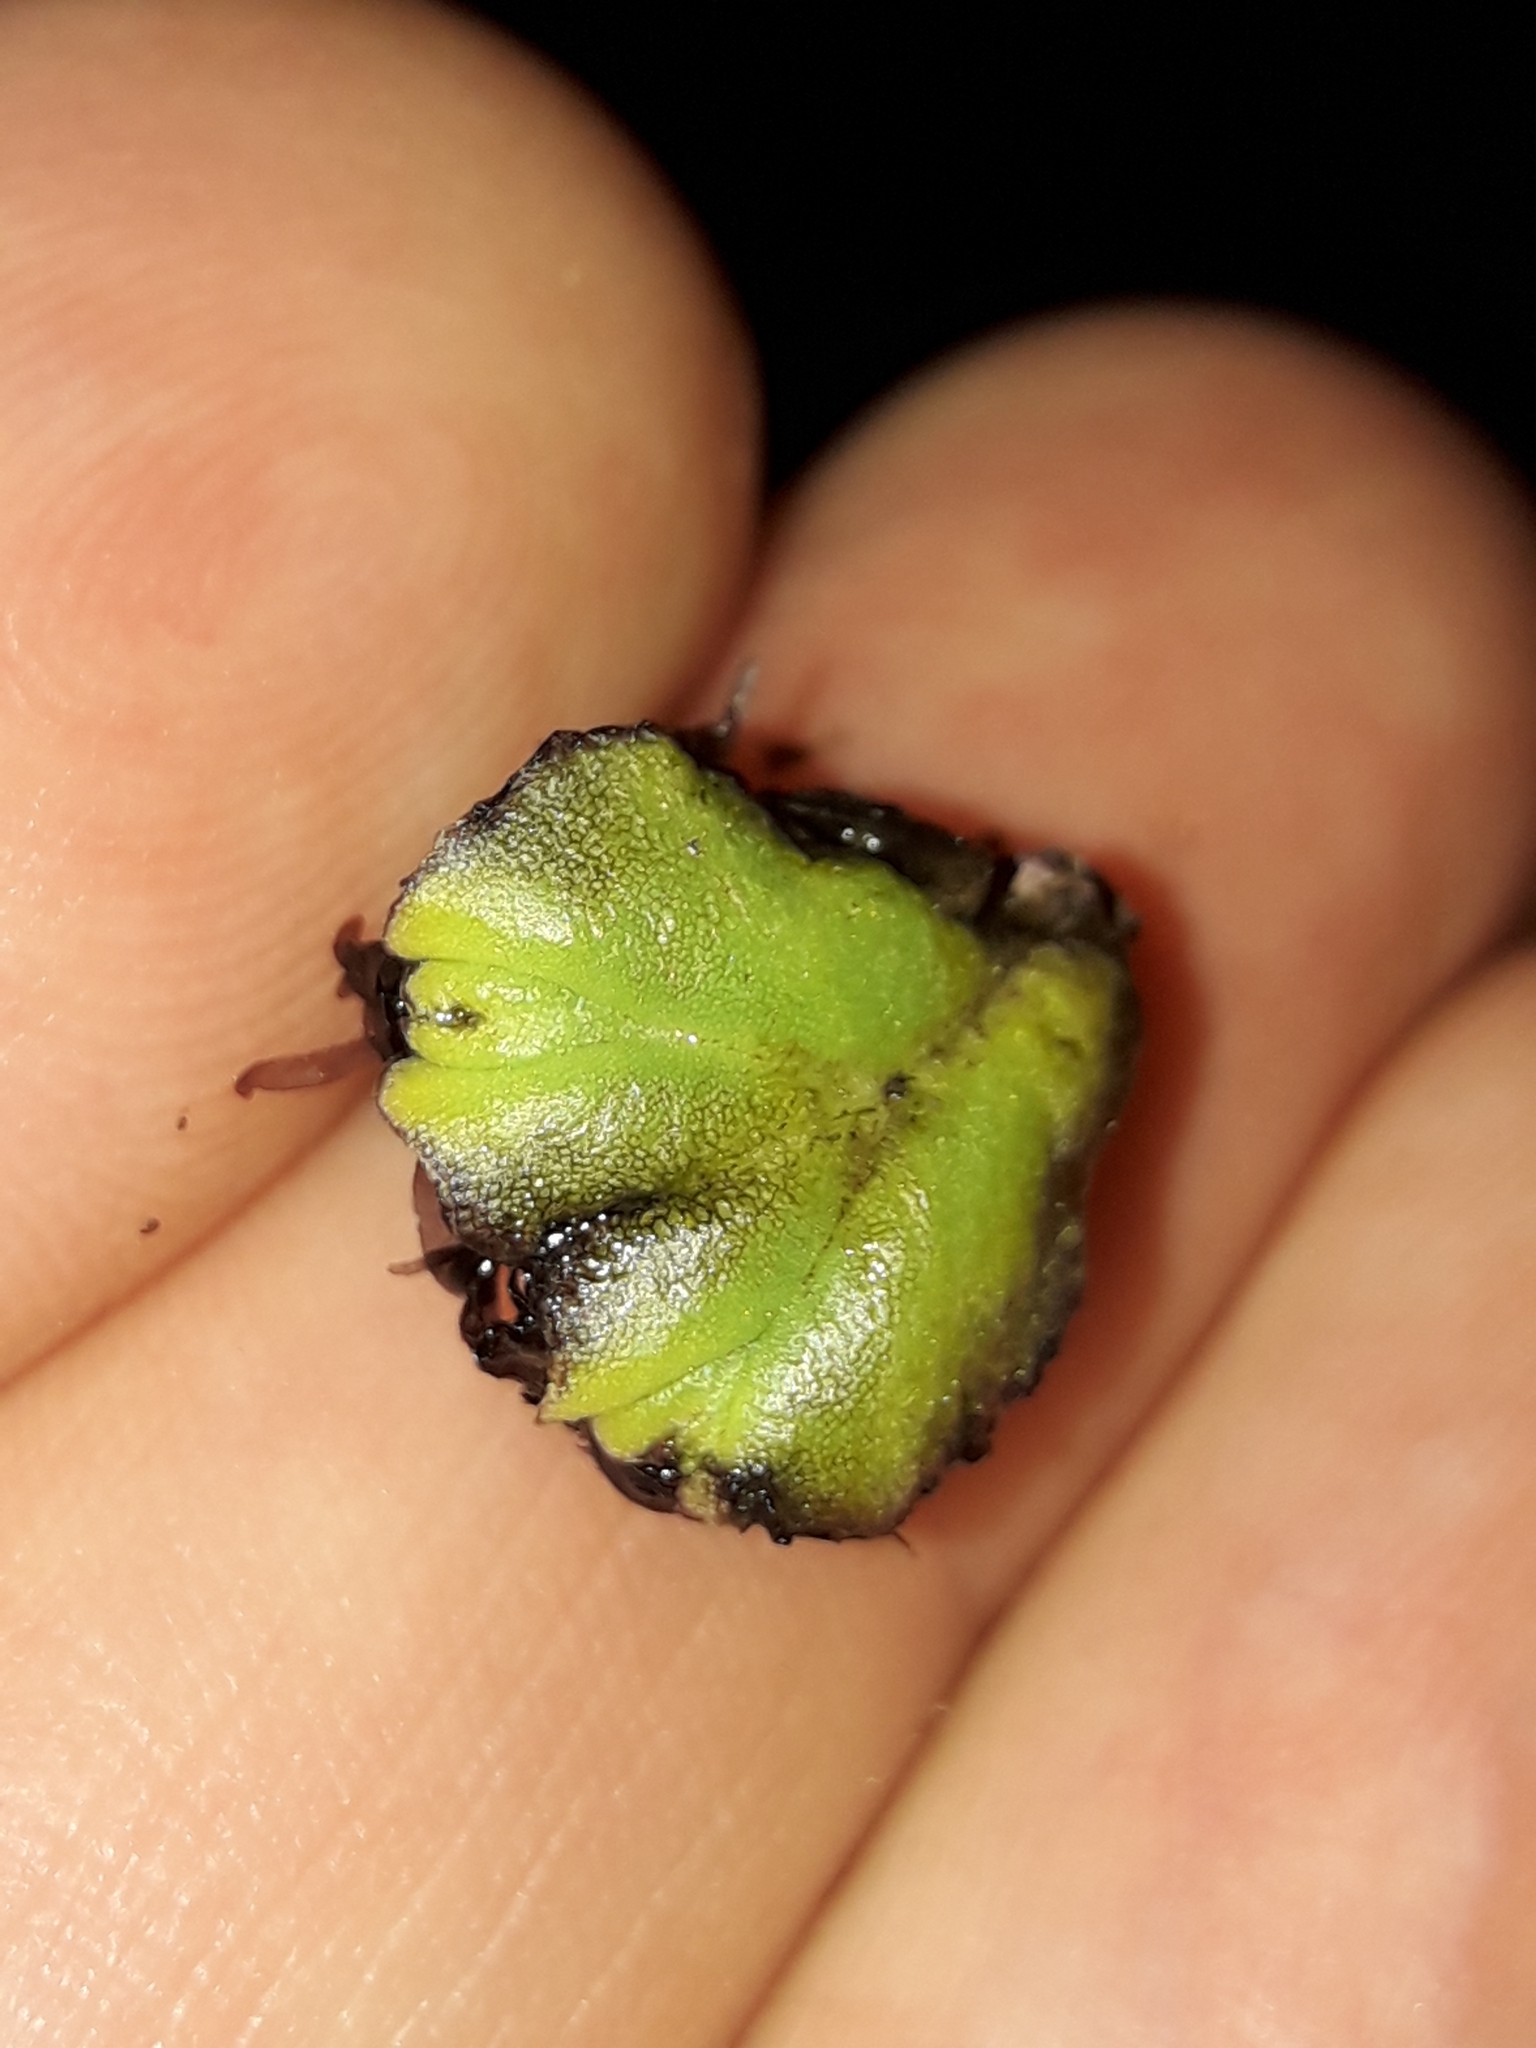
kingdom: Plantae
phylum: Marchantiophyta
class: Marchantiopsida
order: Marchantiales
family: Ricciaceae
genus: Ricciocarpos
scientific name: Ricciocarpos natans
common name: Purple-fringed liverwort
